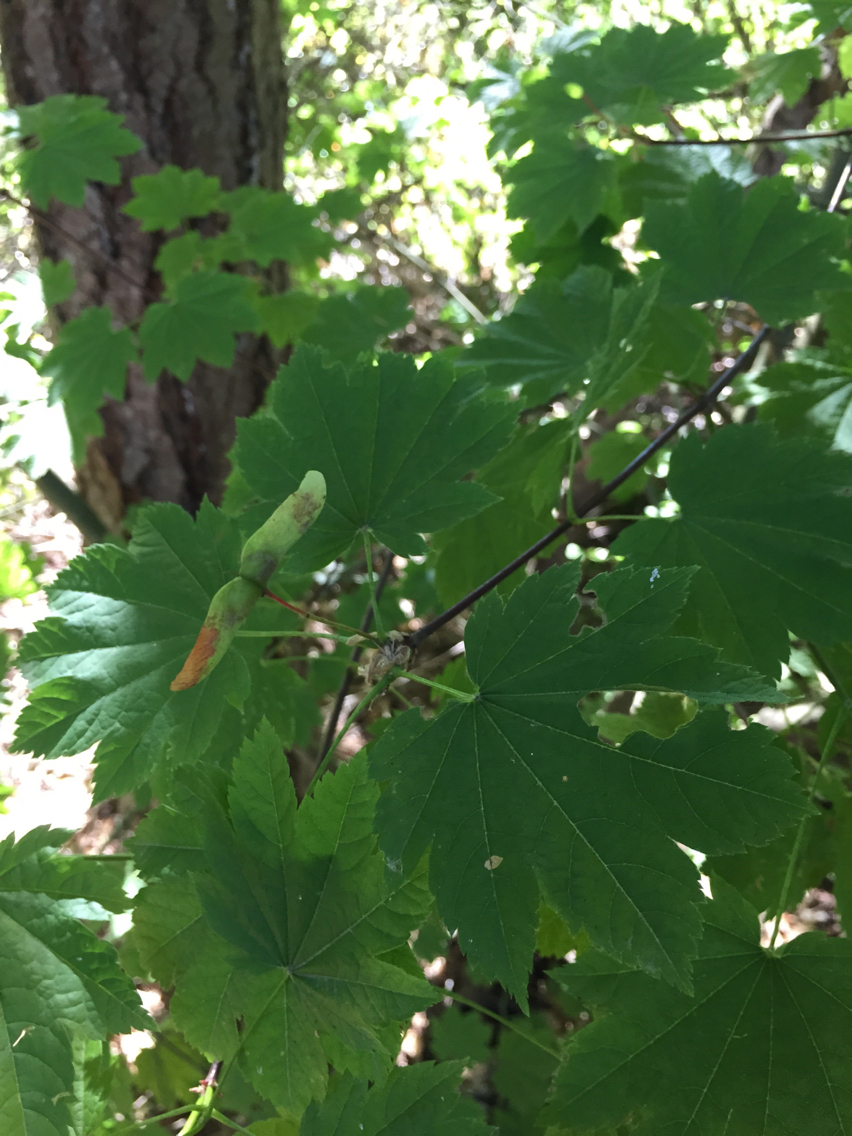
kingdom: Plantae
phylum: Tracheophyta
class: Magnoliopsida
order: Sapindales
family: Sapindaceae
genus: Acer
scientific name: Acer circinatum
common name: Vine maple
